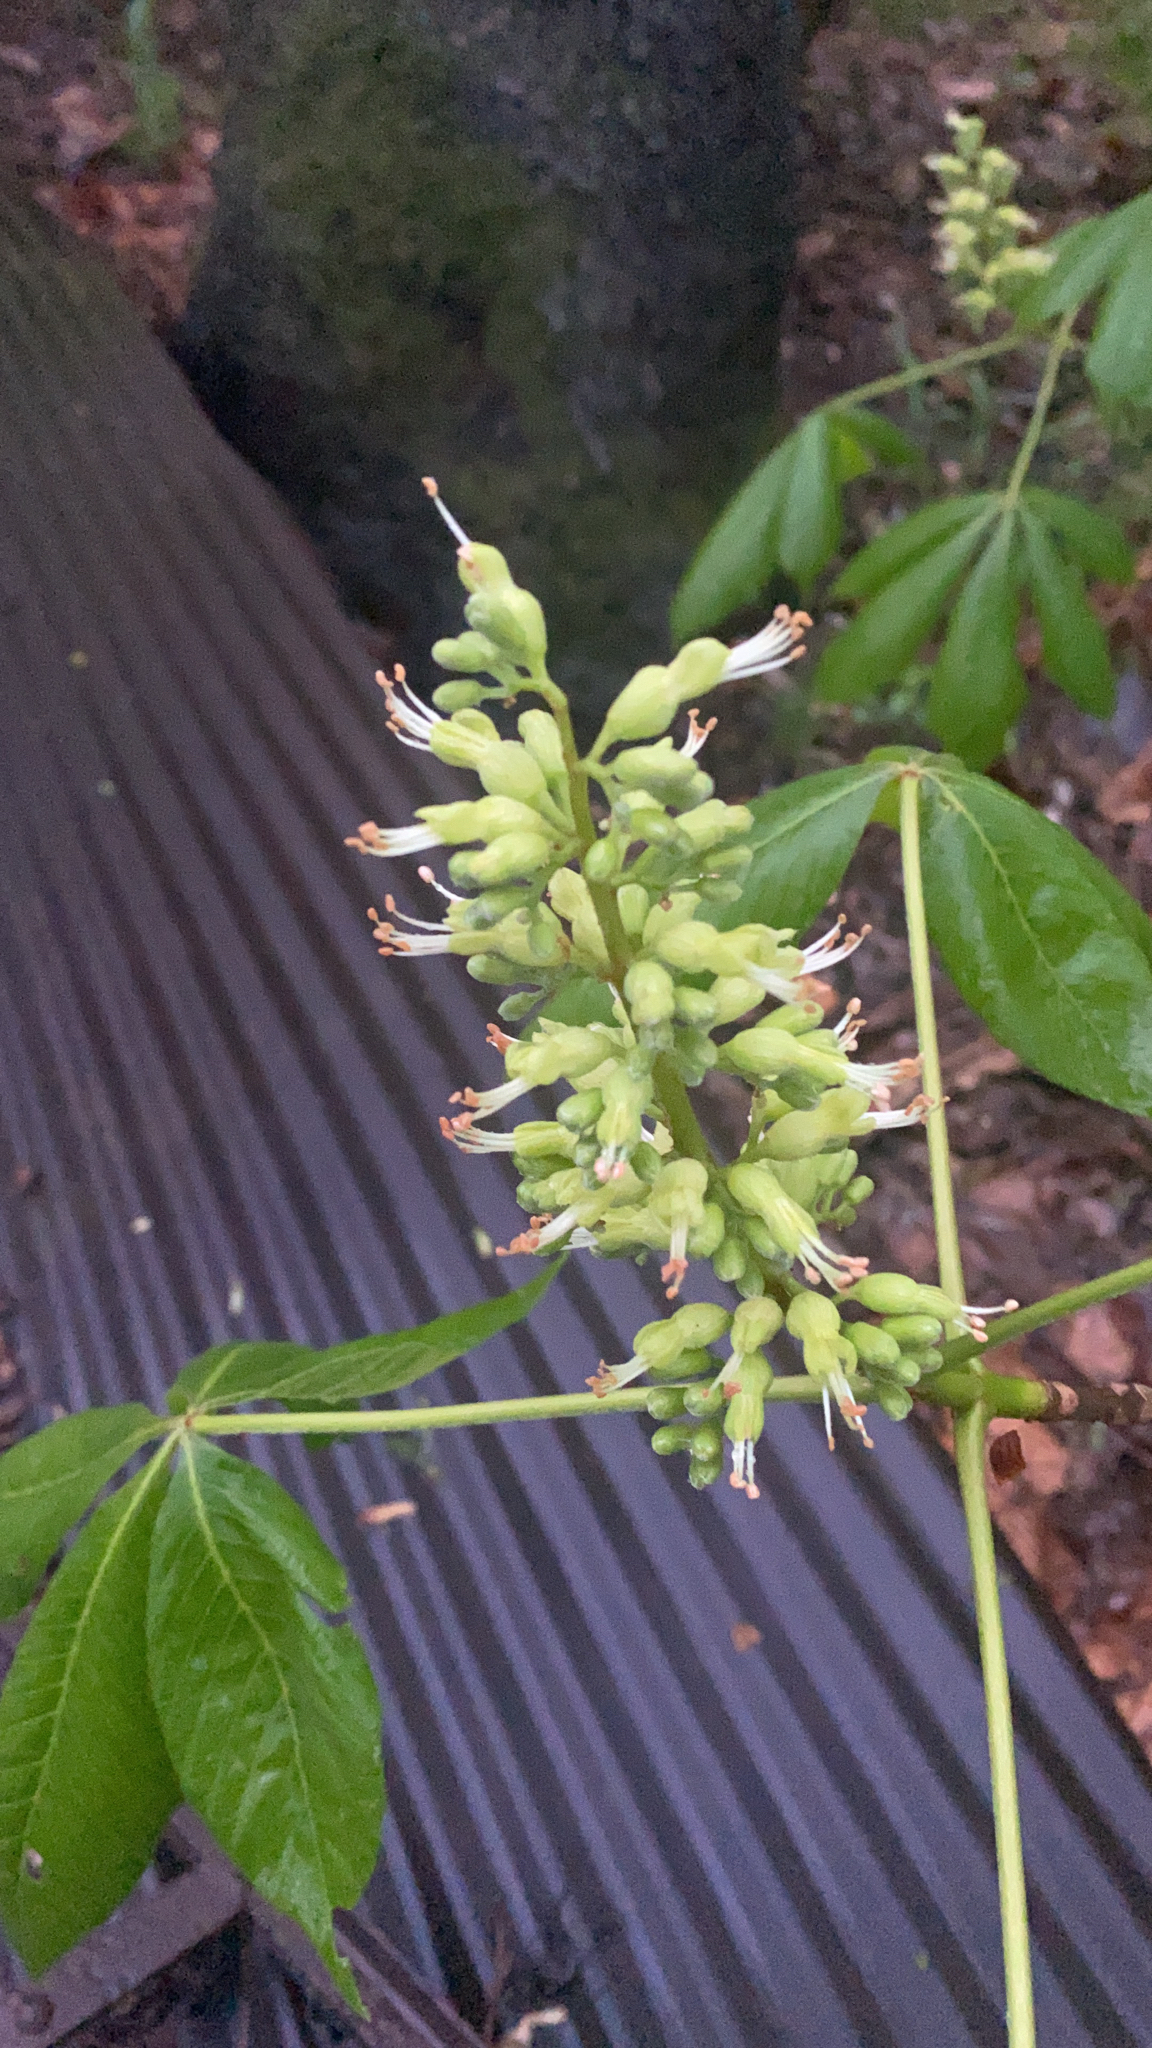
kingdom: Plantae
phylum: Tracheophyta
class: Magnoliopsida
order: Sapindales
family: Sapindaceae
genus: Aesculus
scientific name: Aesculus glabra
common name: Ohio buckeye
